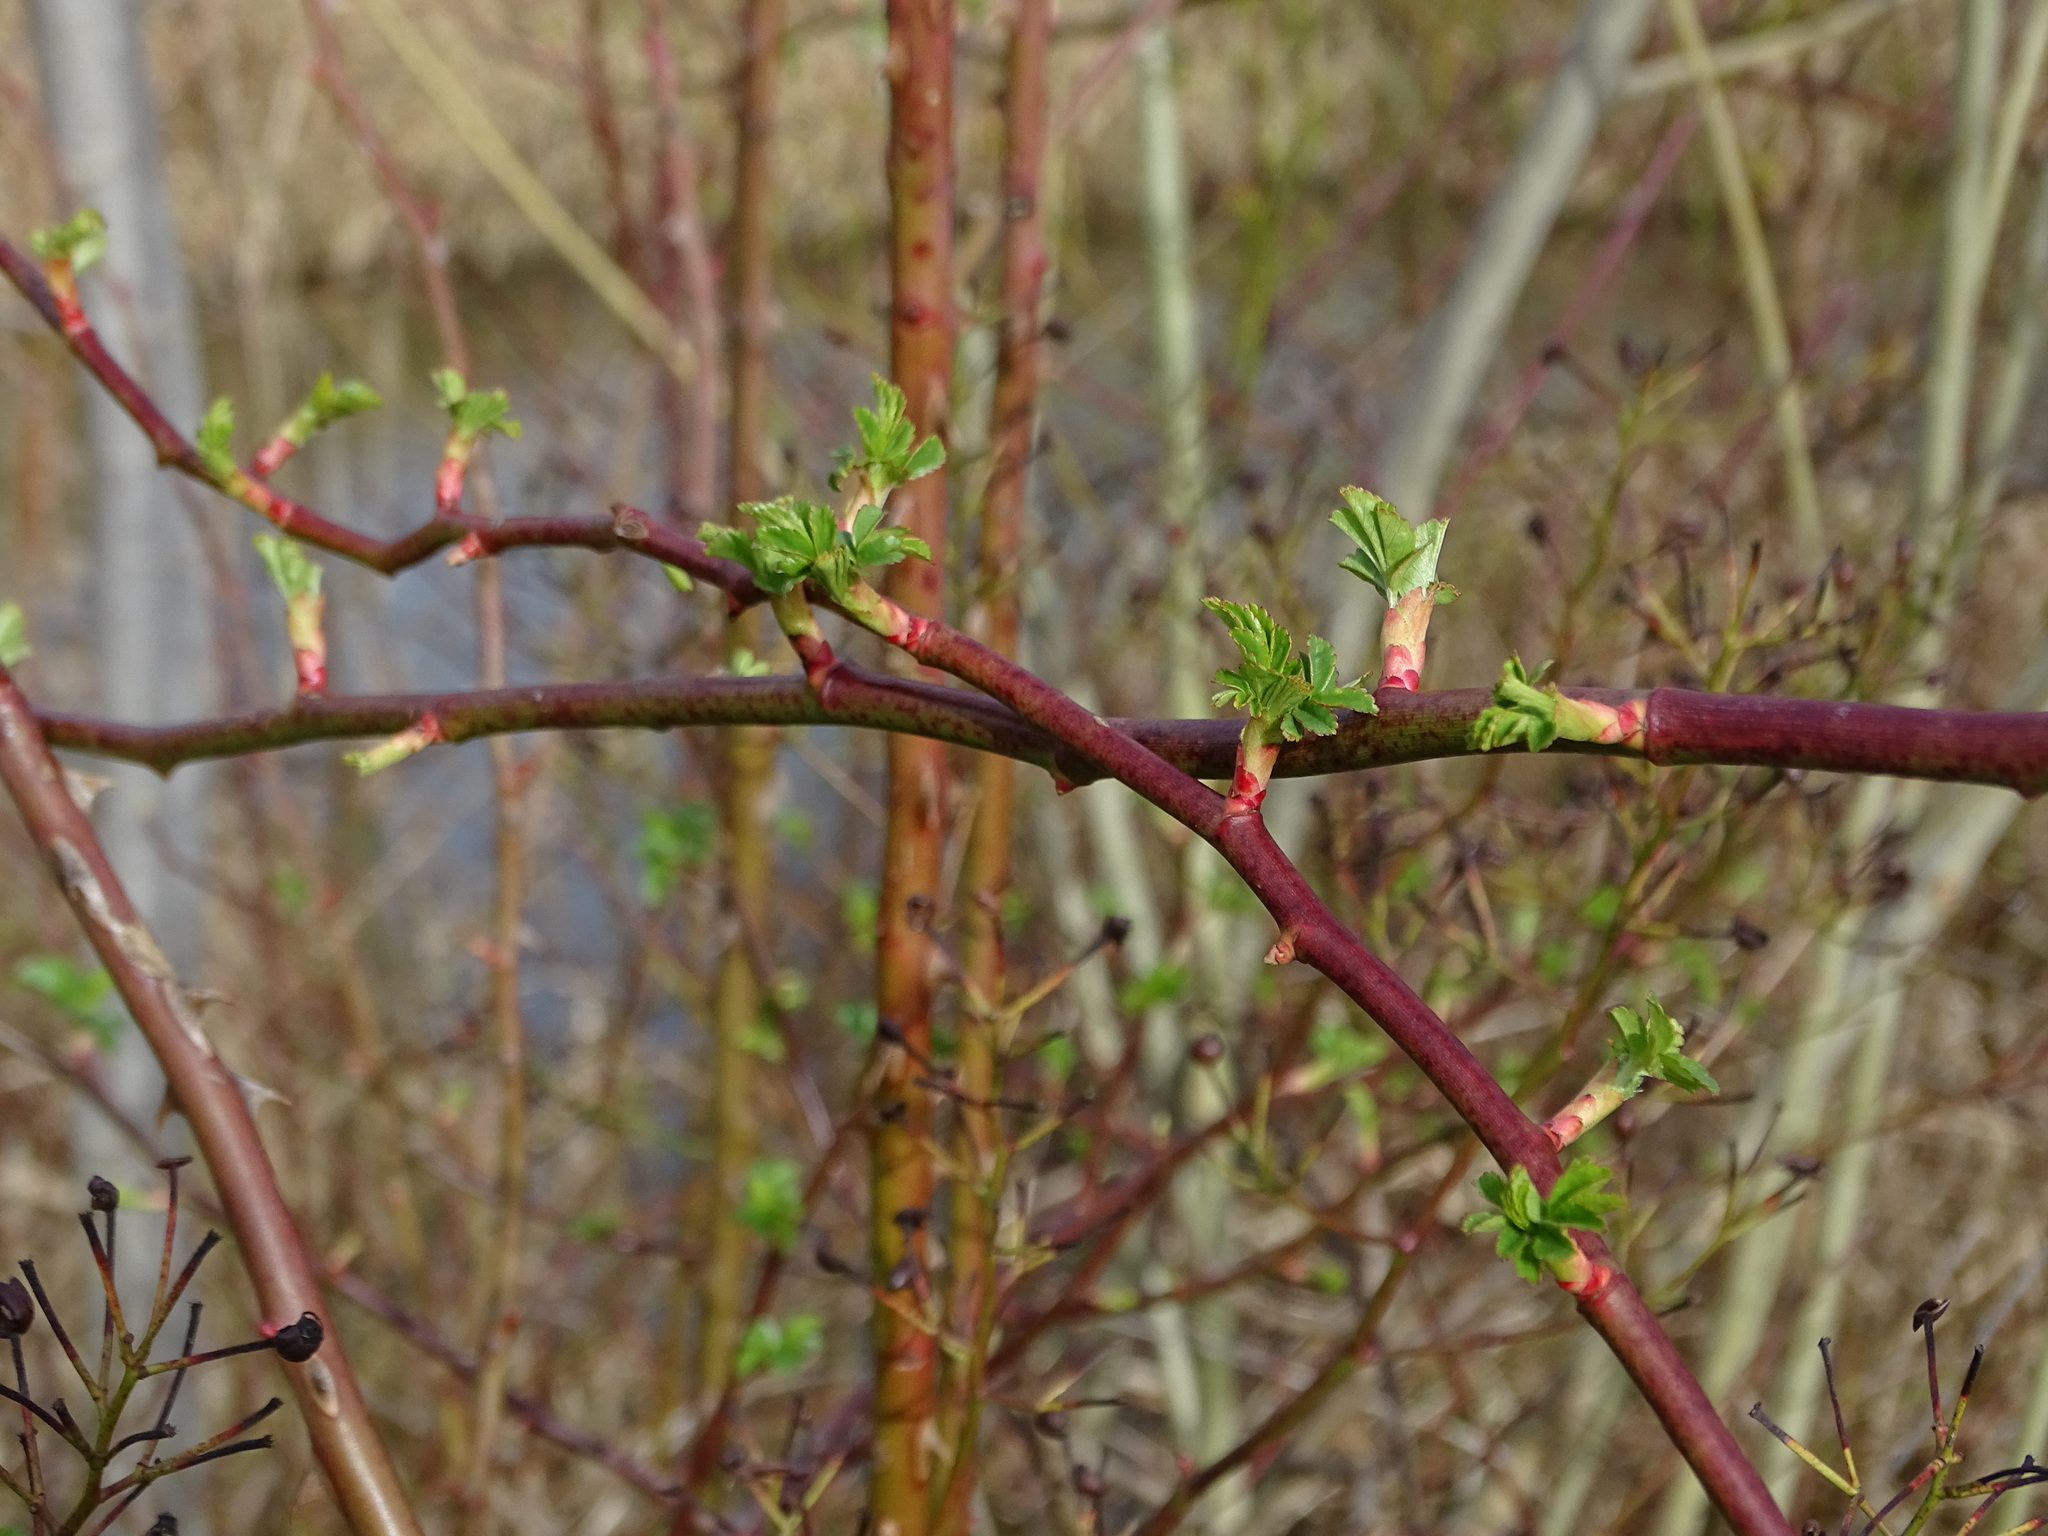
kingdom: Plantae
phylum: Tracheophyta
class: Magnoliopsida
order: Rosales
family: Rosaceae
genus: Rosa
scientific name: Rosa multiflora
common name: Multiflora rose
